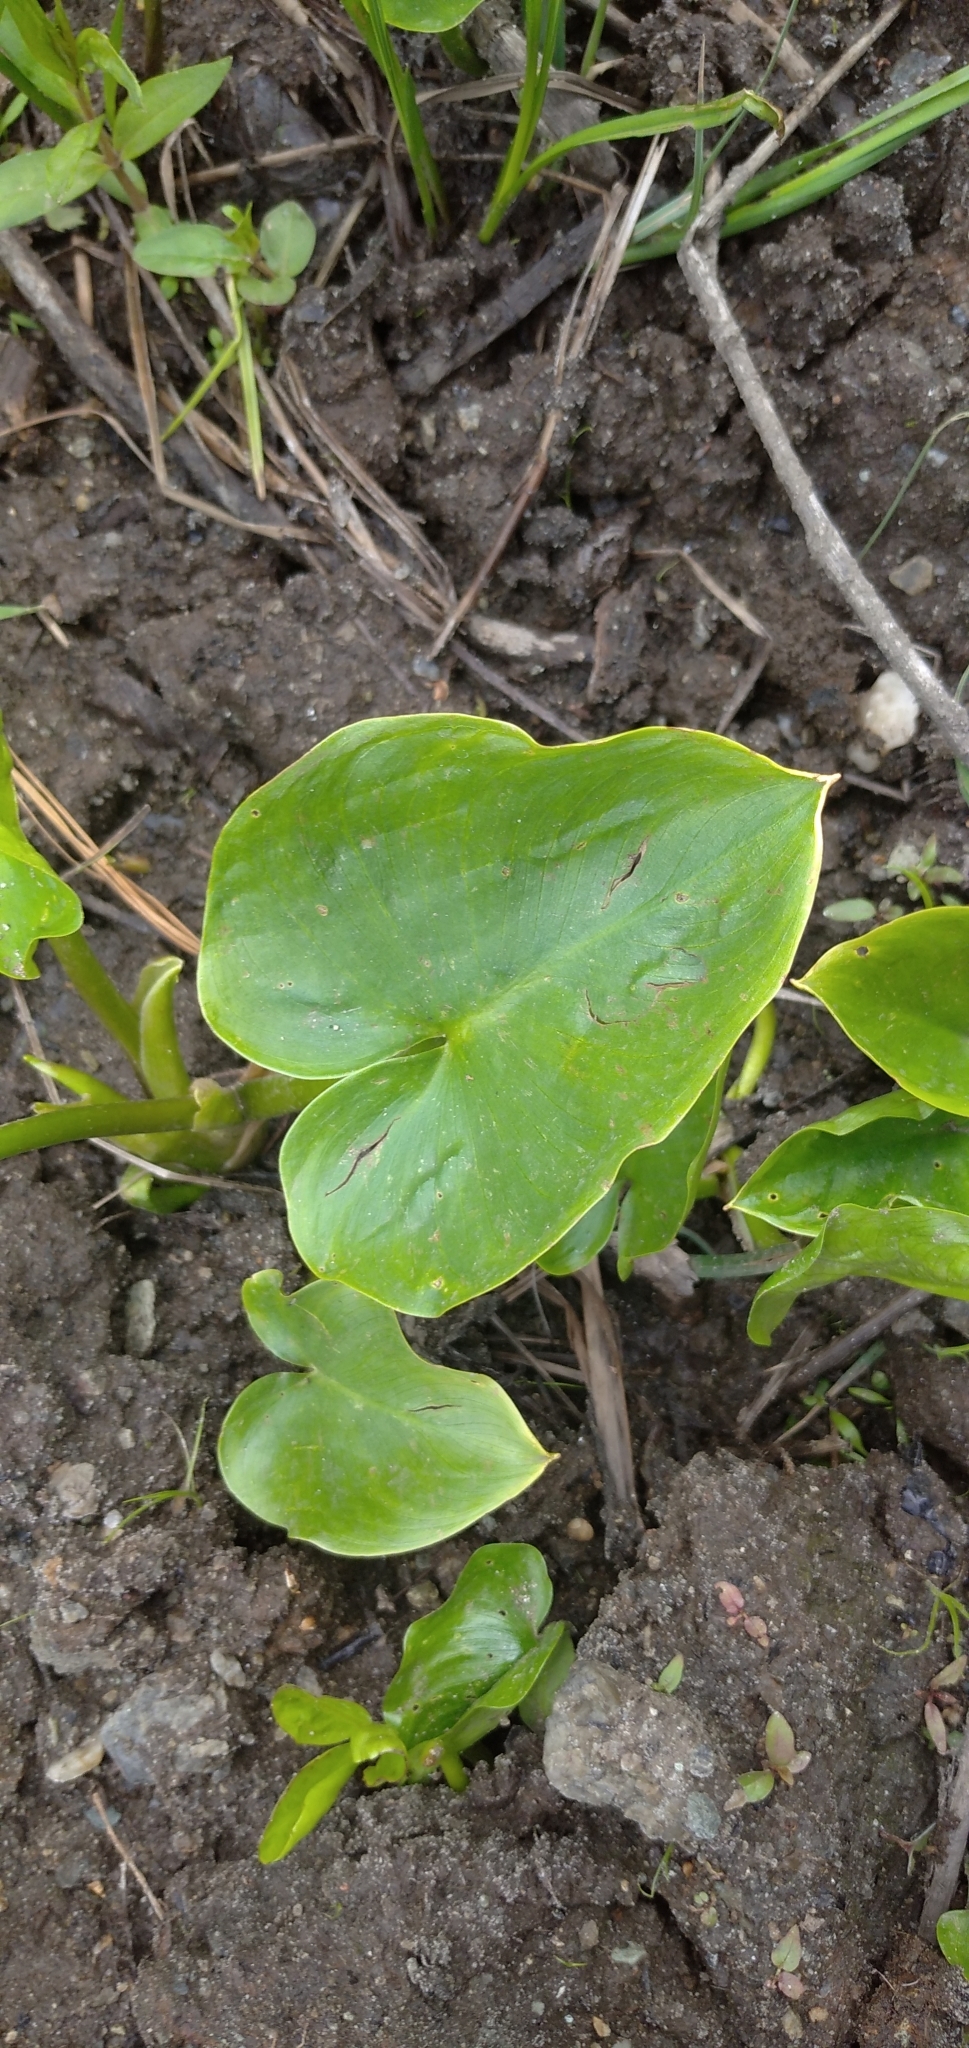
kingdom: Plantae
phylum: Tracheophyta
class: Liliopsida
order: Alismatales
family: Araceae
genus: Calla
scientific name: Calla palustris
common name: Bog arum
